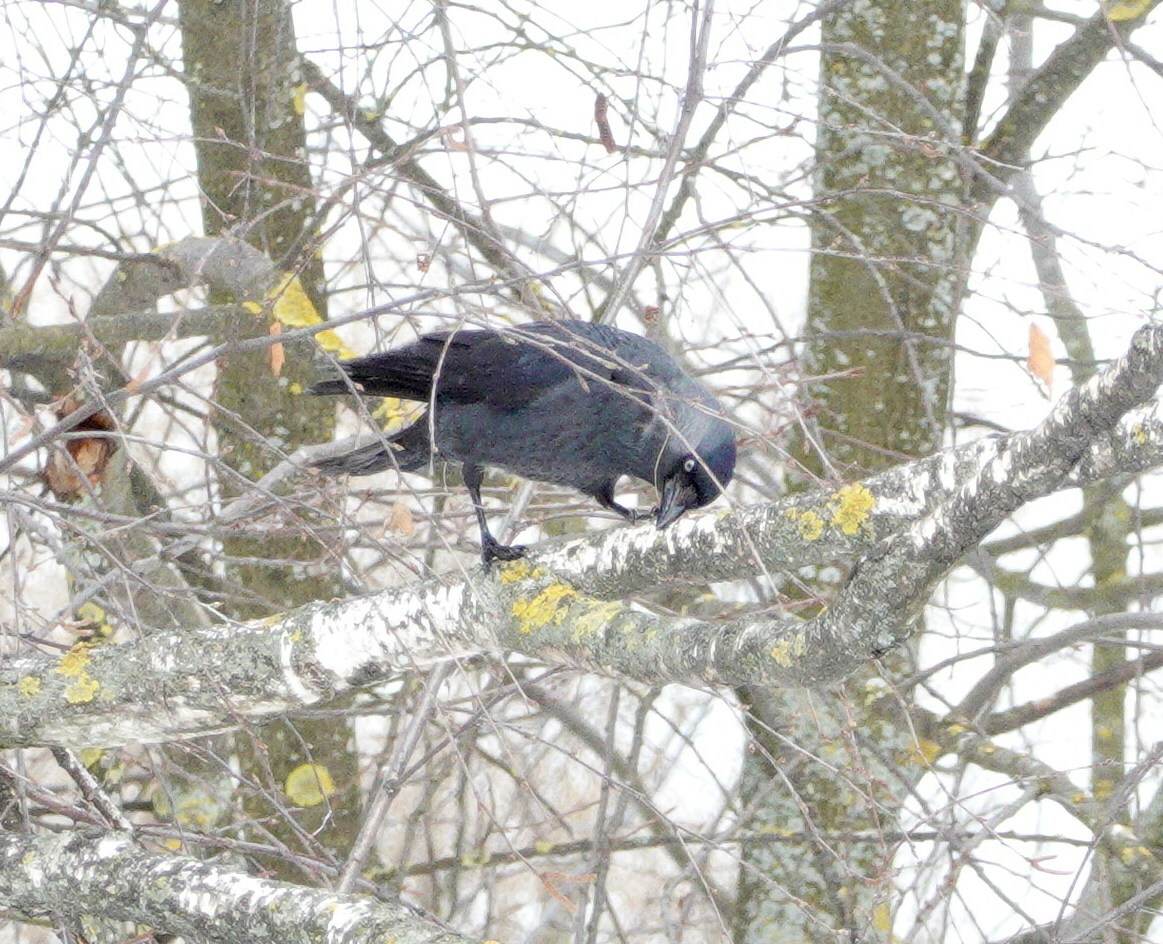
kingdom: Animalia
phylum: Chordata
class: Aves
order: Passeriformes
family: Corvidae
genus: Coloeus
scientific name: Coloeus monedula
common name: Western jackdaw
